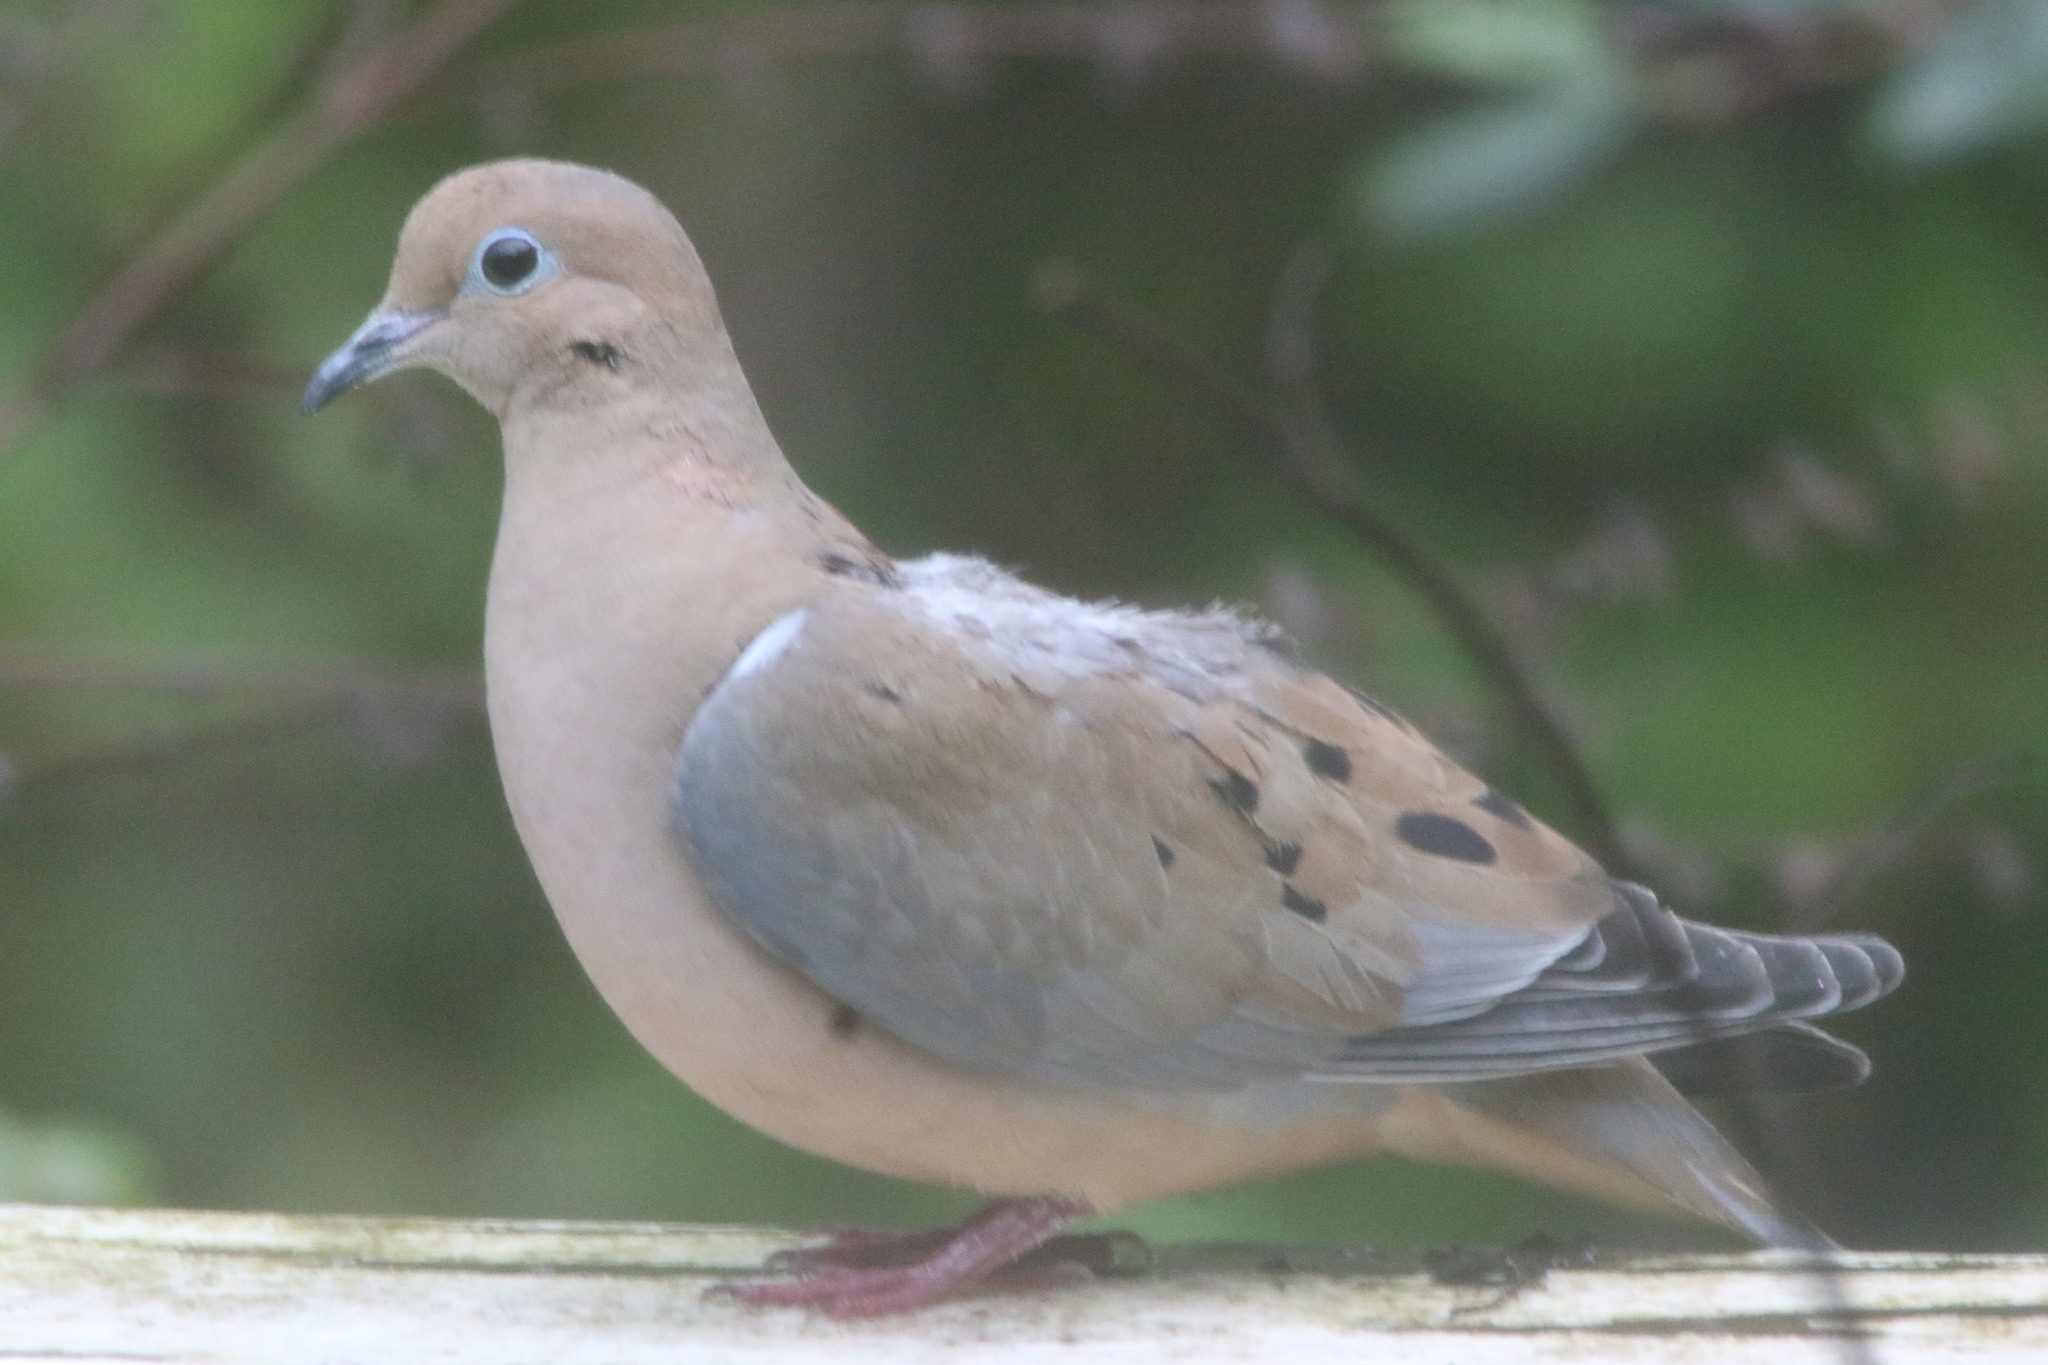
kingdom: Animalia
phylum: Chordata
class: Aves
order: Columbiformes
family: Columbidae
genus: Zenaida
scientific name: Zenaida macroura
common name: Mourning dove
